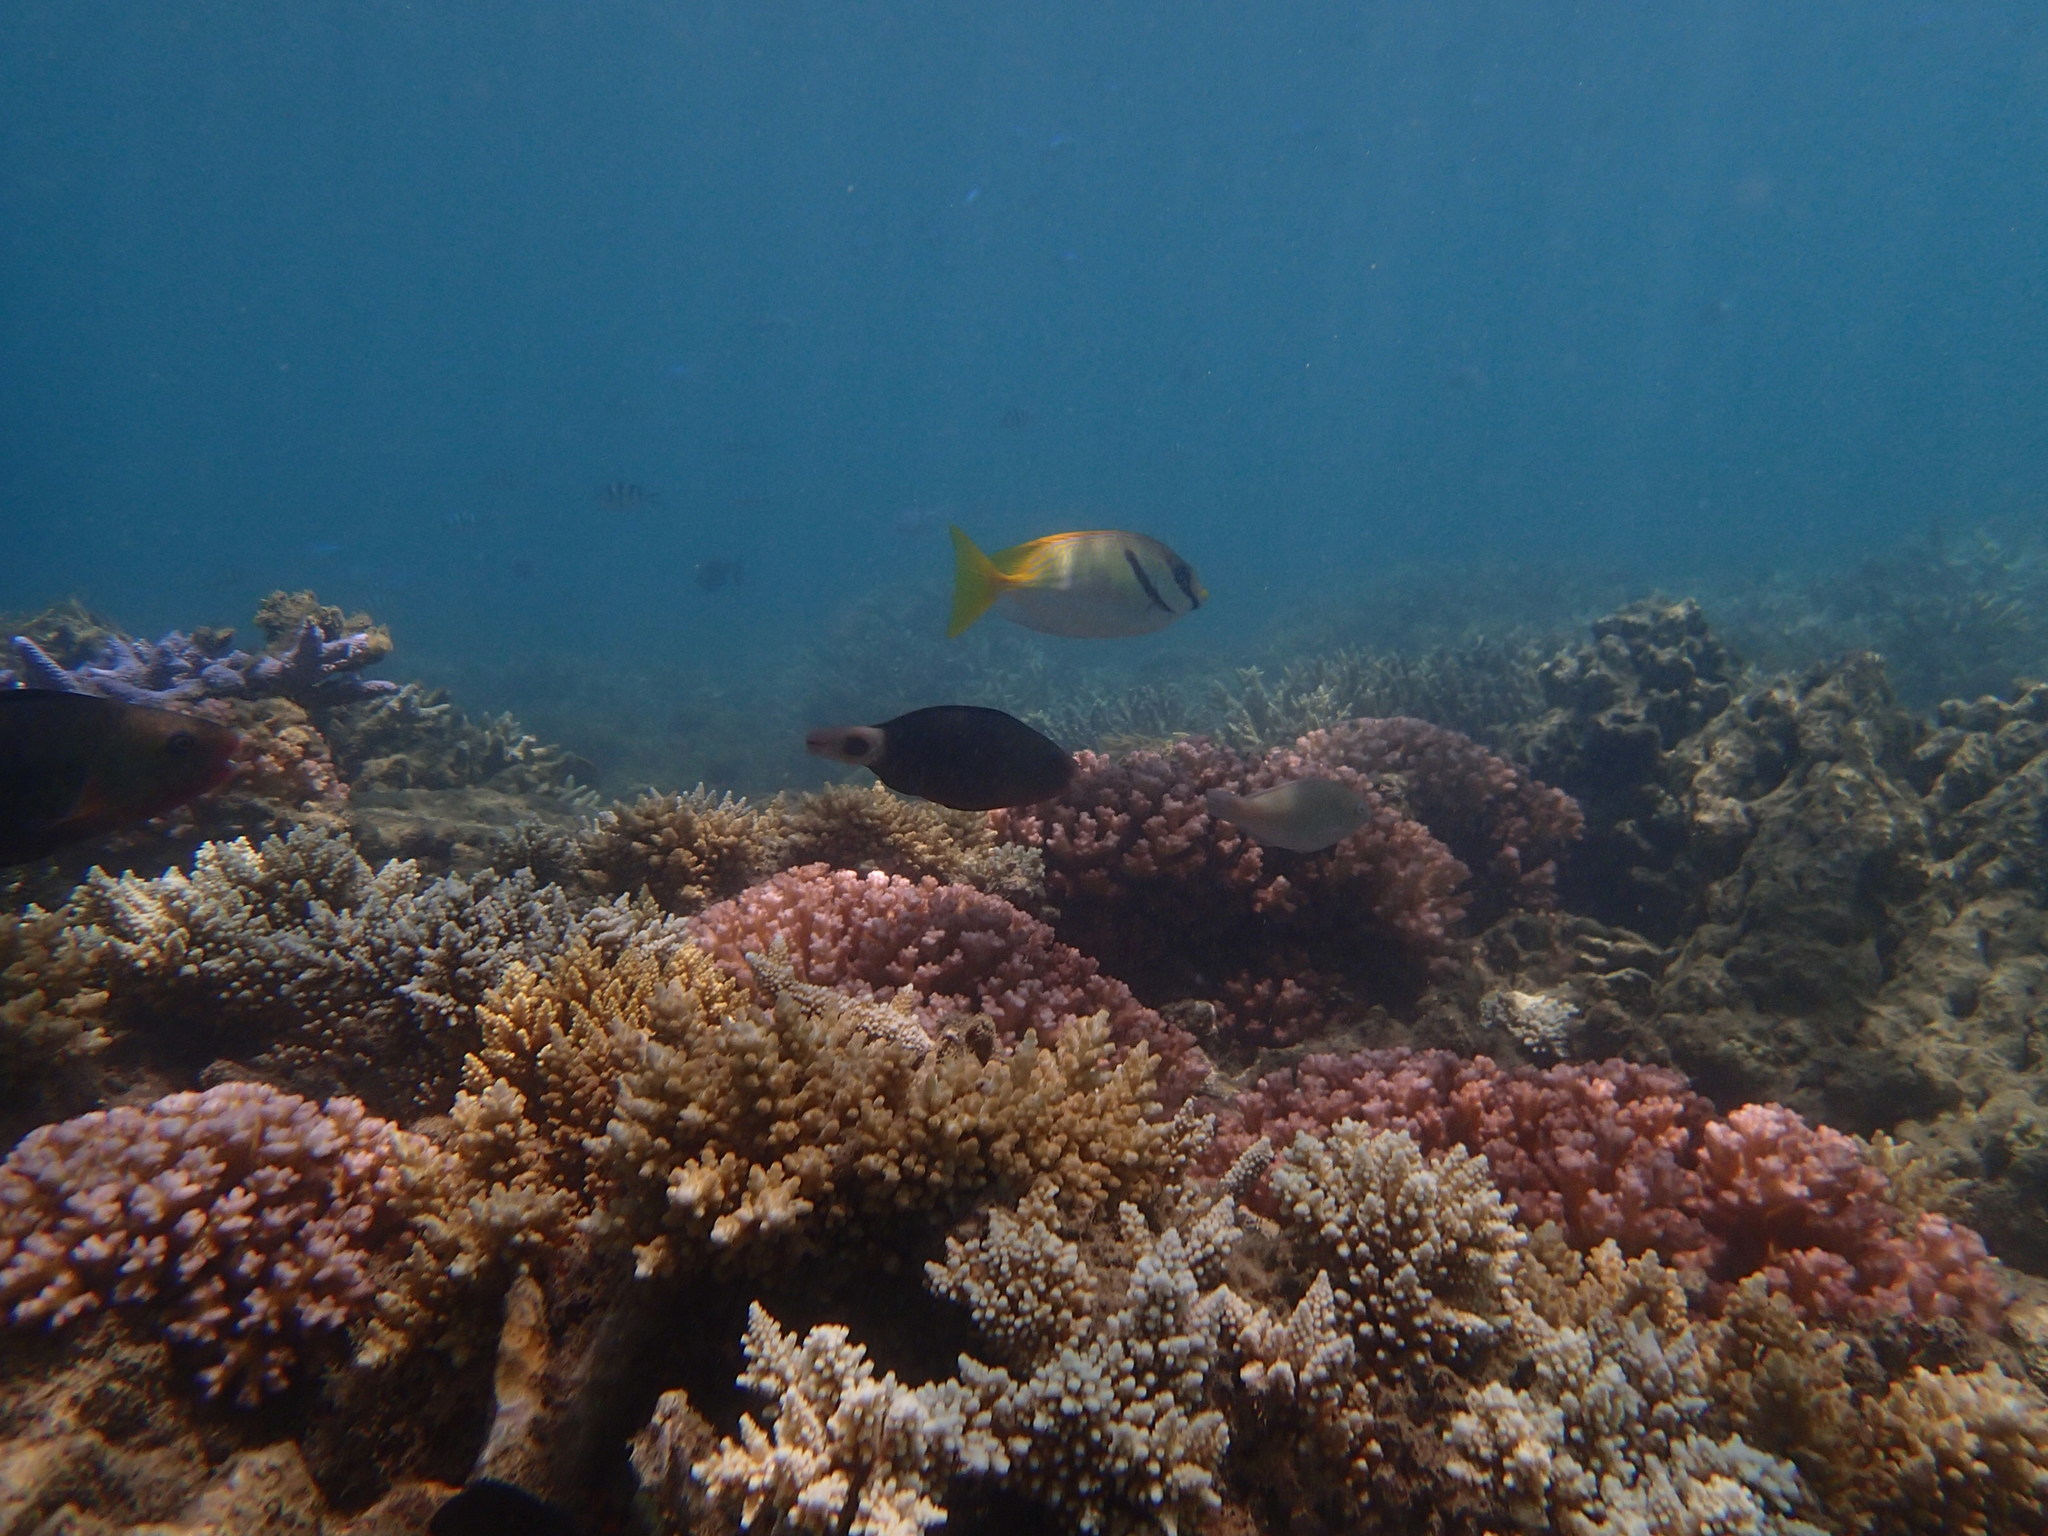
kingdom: Animalia
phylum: Chordata
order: Perciformes
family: Scaridae
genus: Chlorurus
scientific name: Chlorurus spilurus
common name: Bullethead parrotfish
